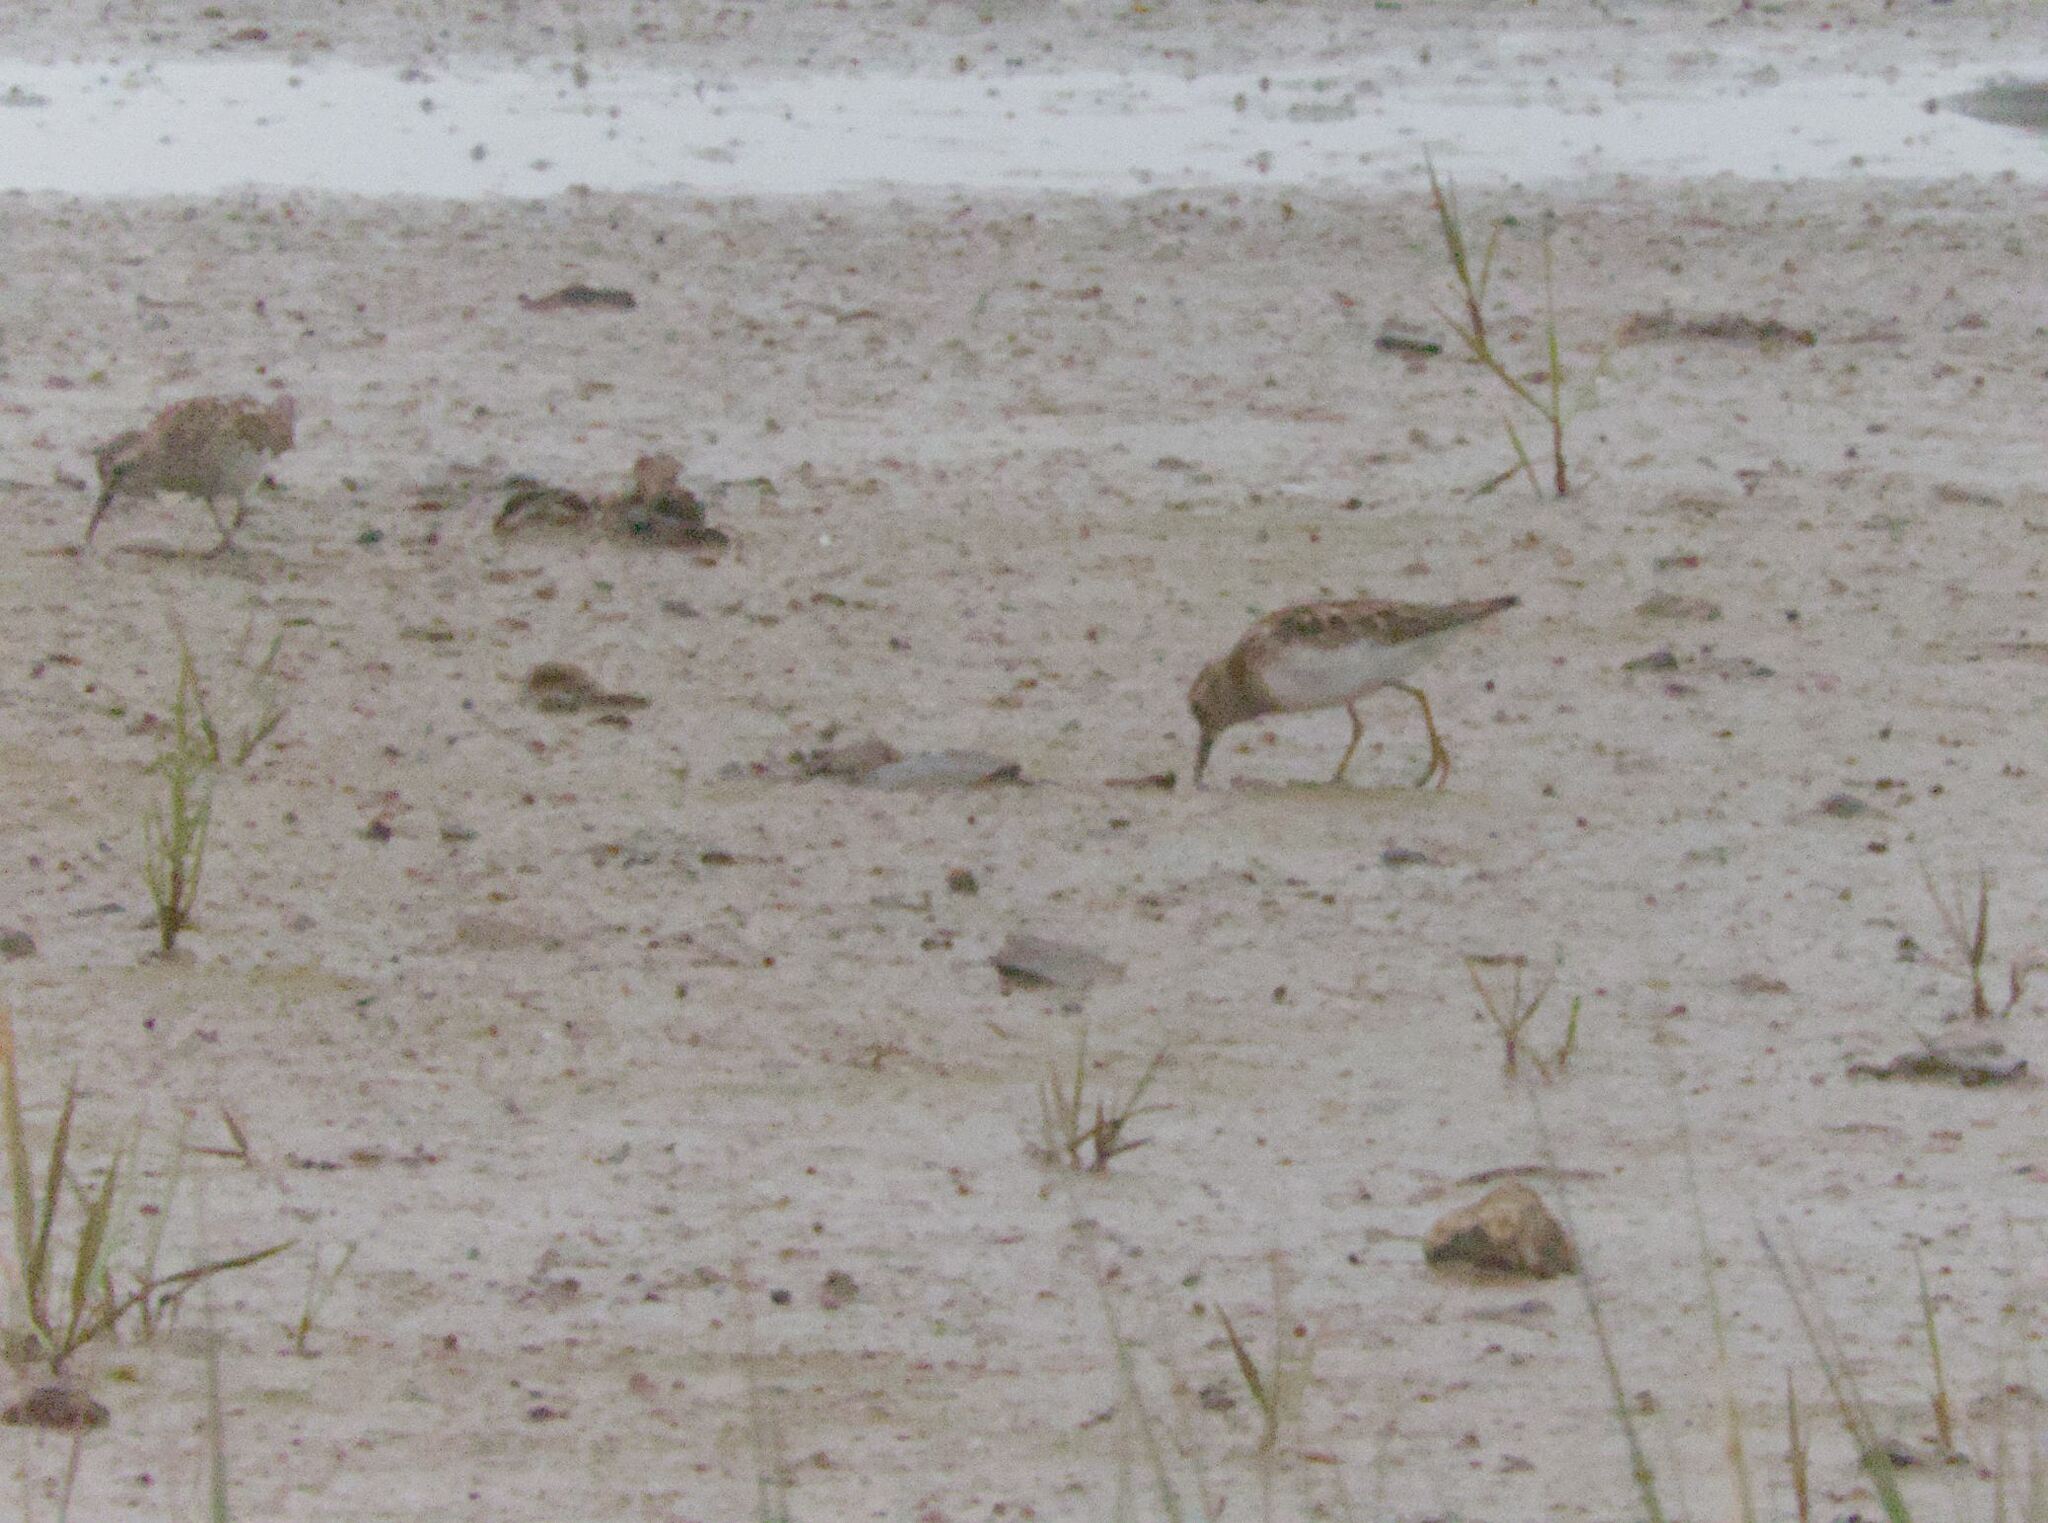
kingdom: Animalia
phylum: Chordata
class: Aves
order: Charadriiformes
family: Scolopacidae
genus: Calidris
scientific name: Calidris minutilla
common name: Least sandpiper
